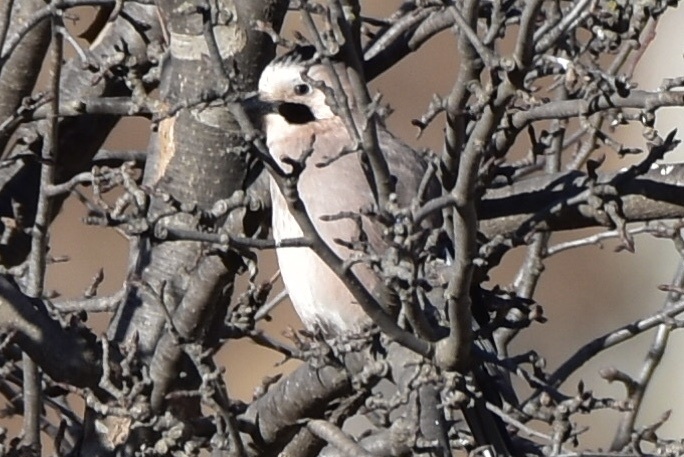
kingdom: Animalia
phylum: Chordata
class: Aves
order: Passeriformes
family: Corvidae
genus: Garrulus
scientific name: Garrulus glandarius
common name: Eurasian jay
